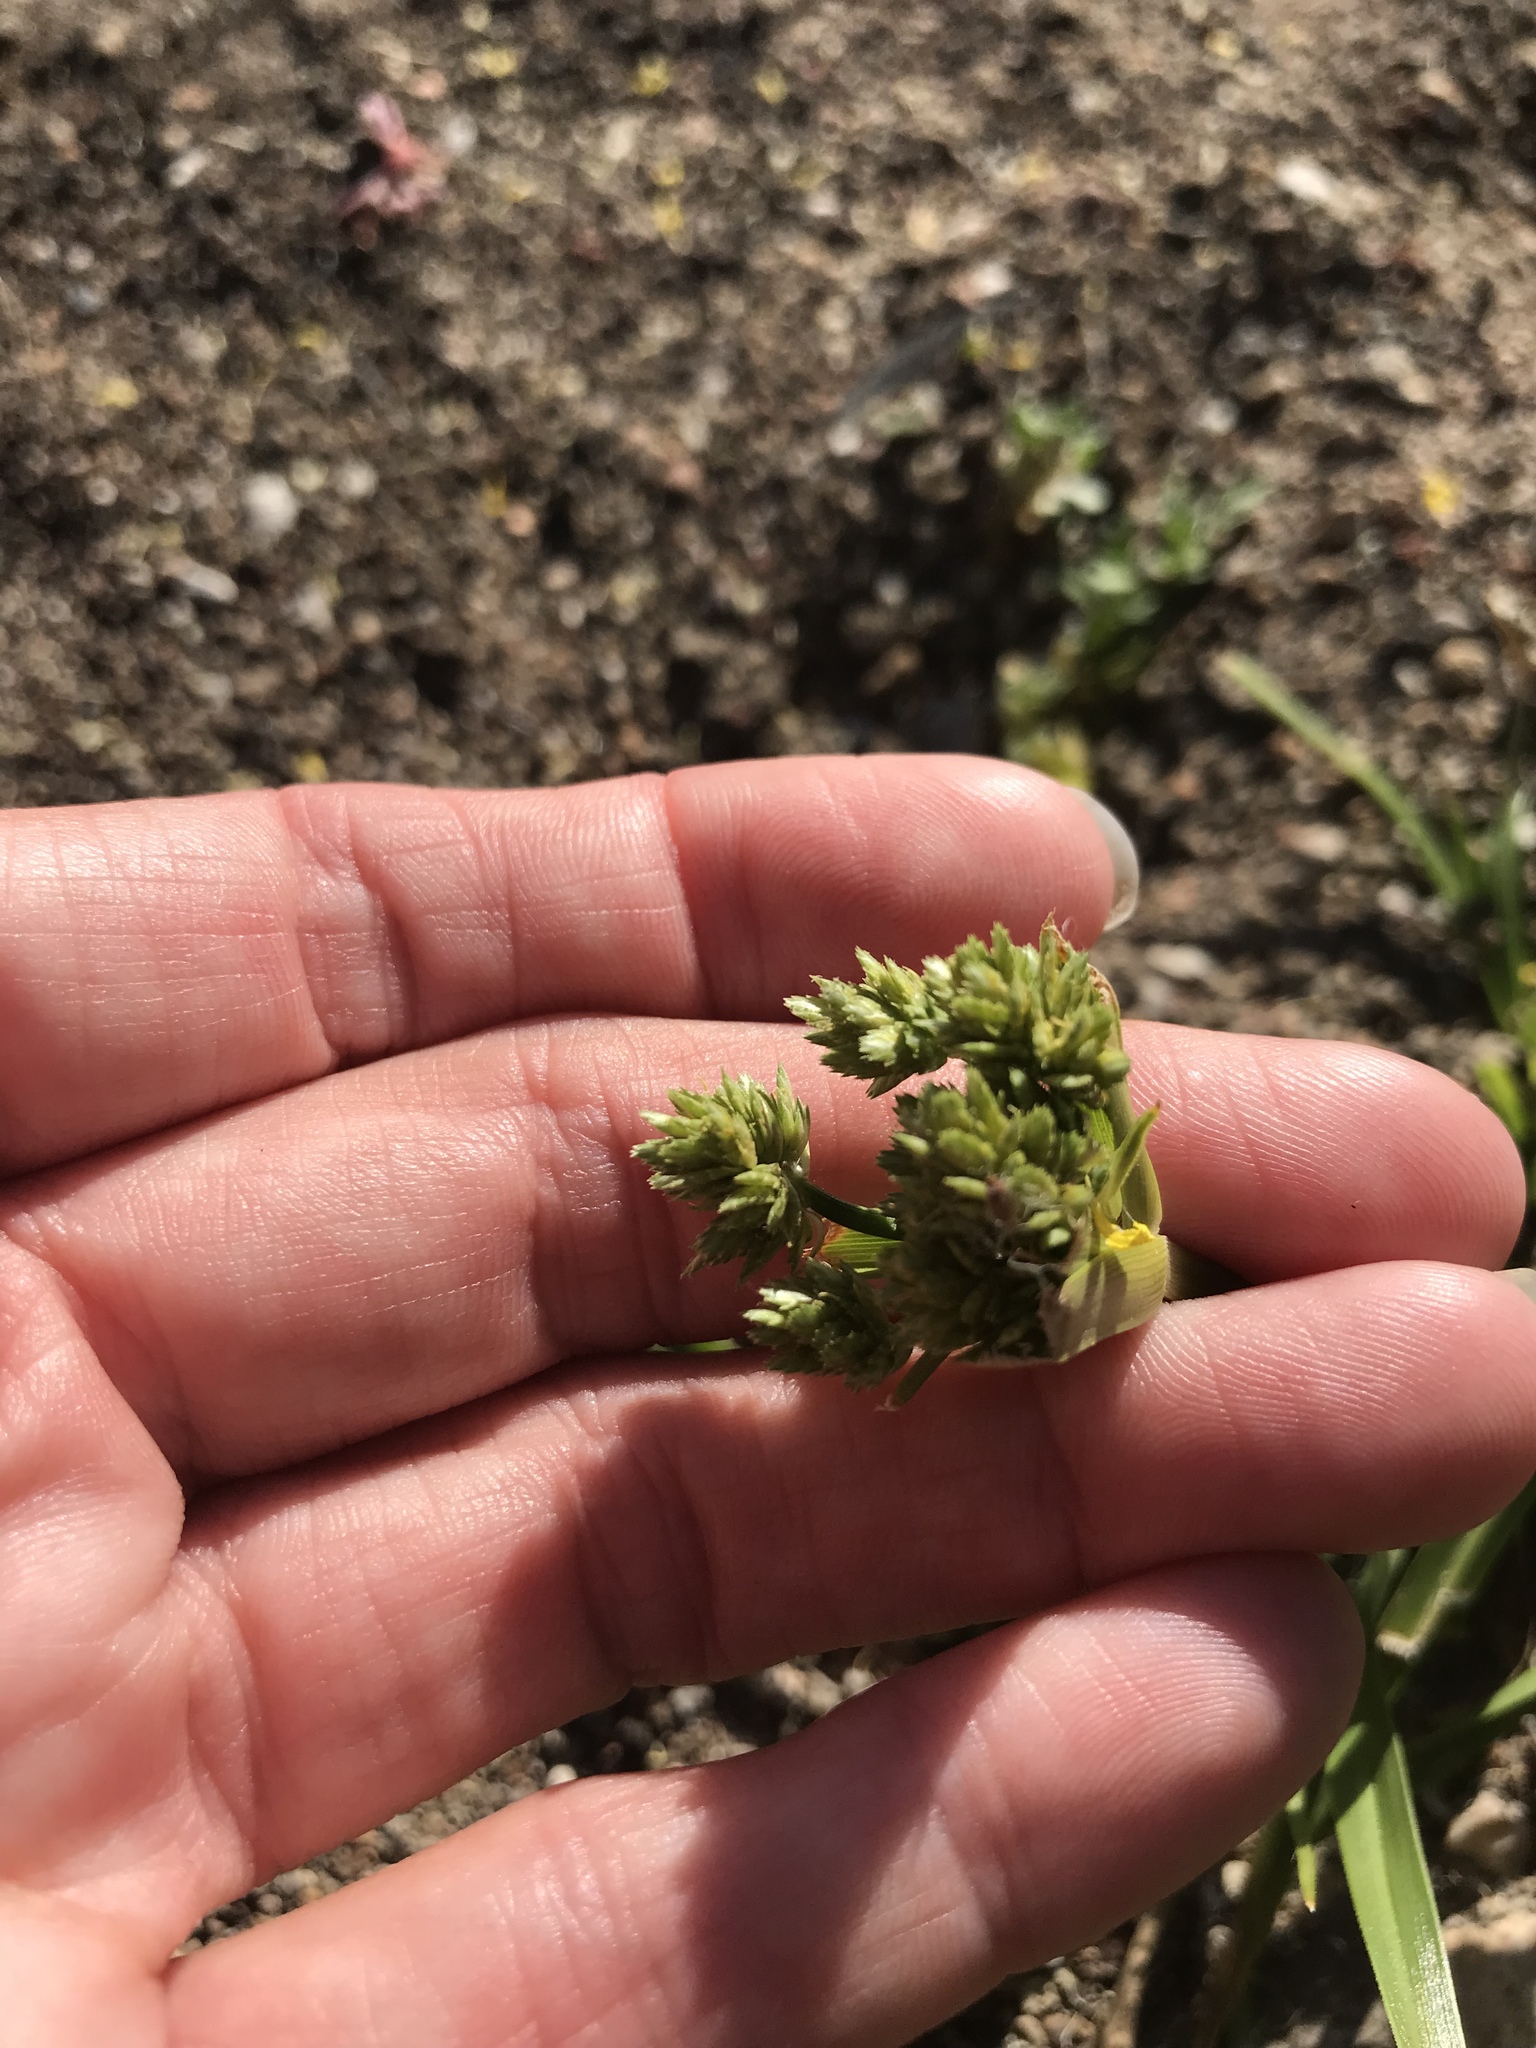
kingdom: Plantae
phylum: Tracheophyta
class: Liliopsida
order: Poales
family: Cyperaceae
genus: Cyperus
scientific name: Cyperus eragrostis
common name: Tall flatsedge
